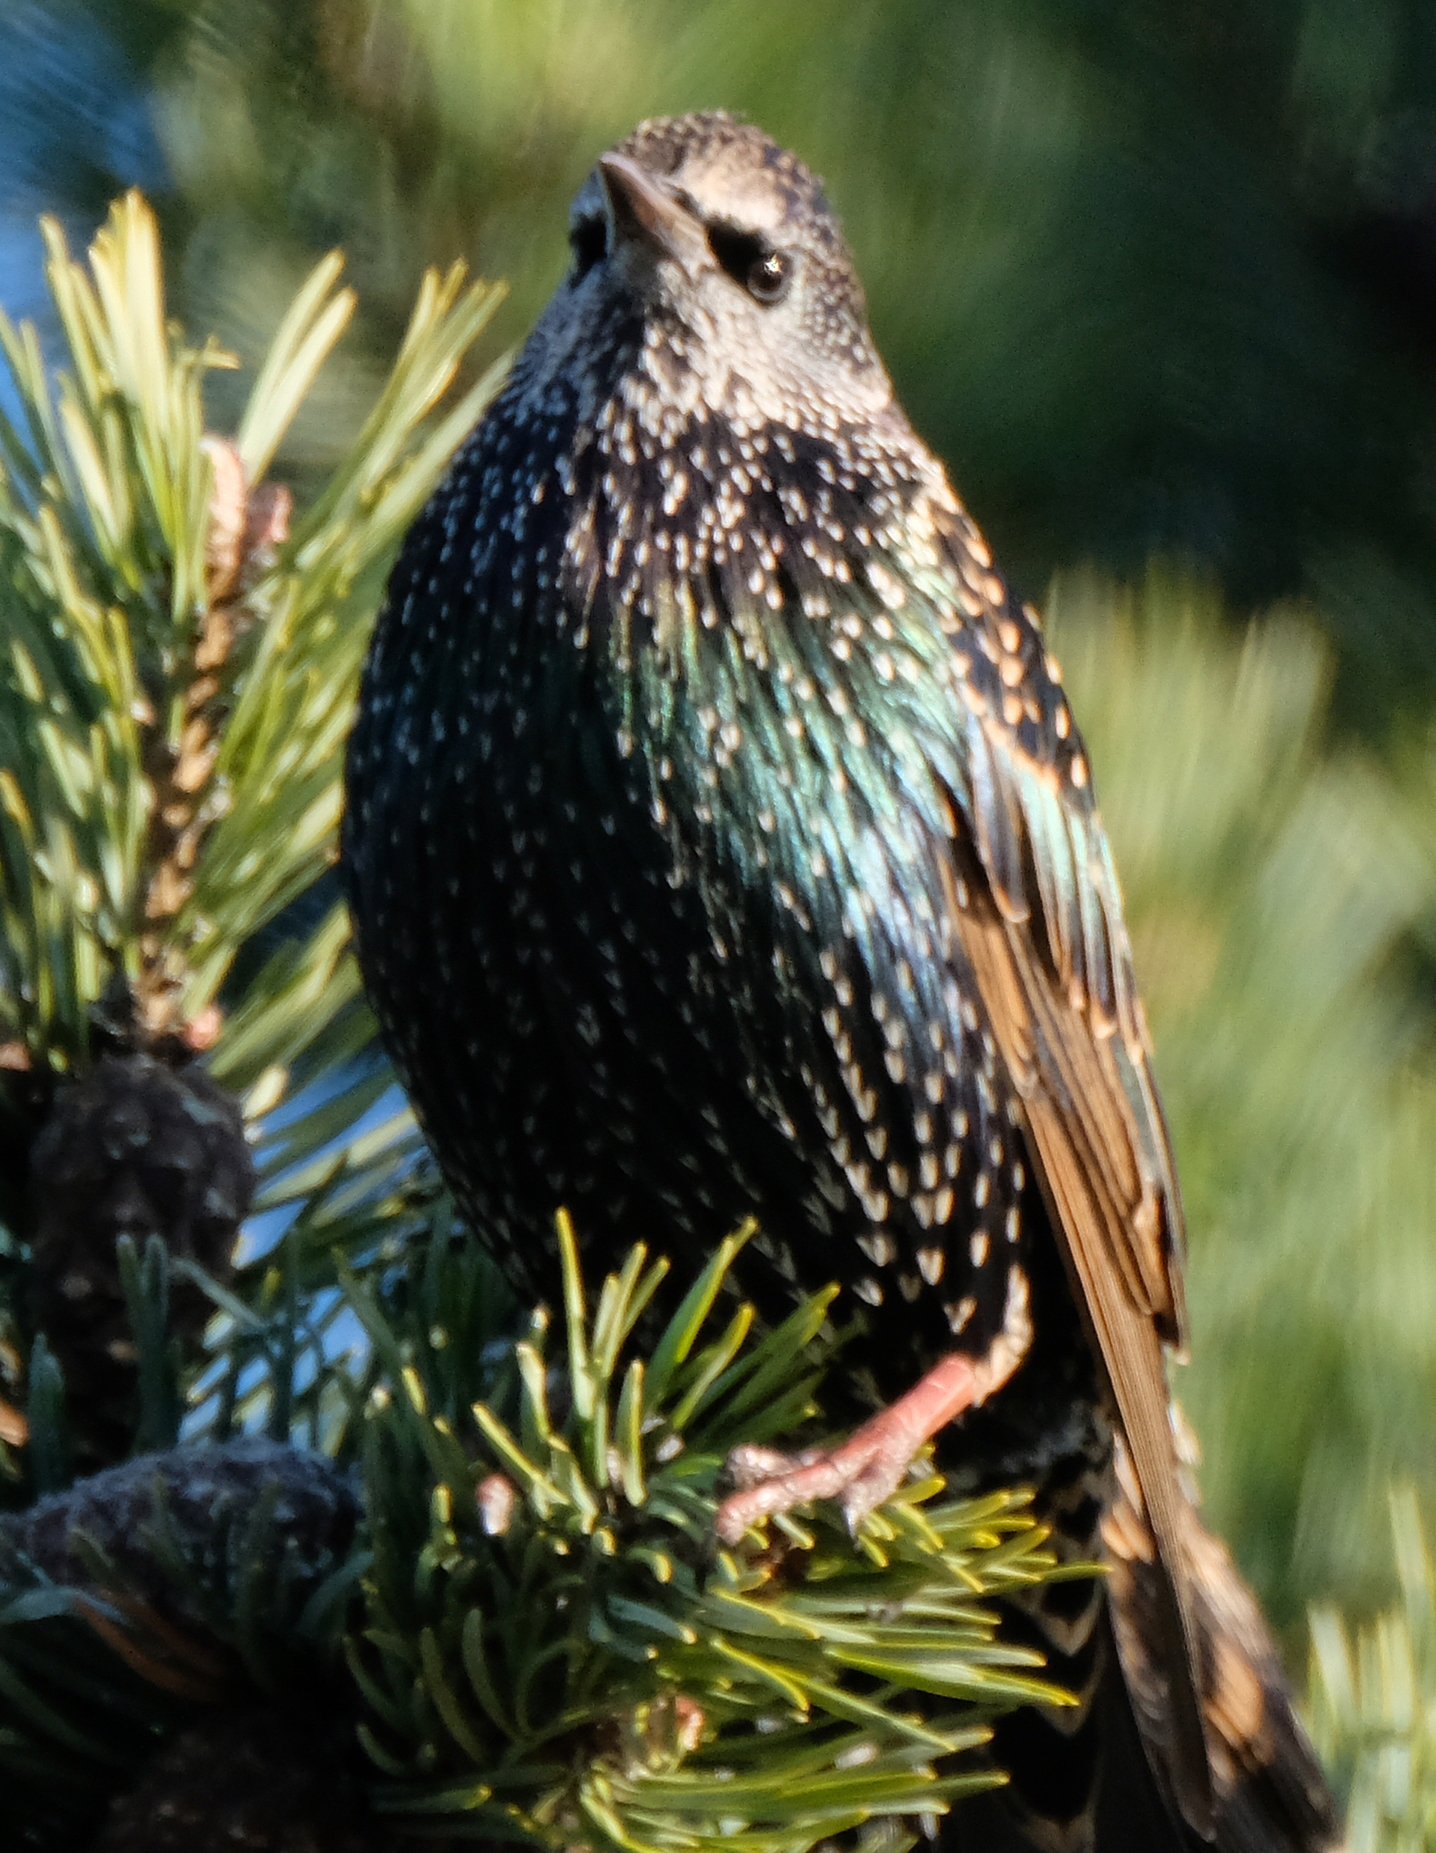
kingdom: Animalia
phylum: Chordata
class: Aves
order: Passeriformes
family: Sturnidae
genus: Sturnus
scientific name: Sturnus vulgaris
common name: Common starling
